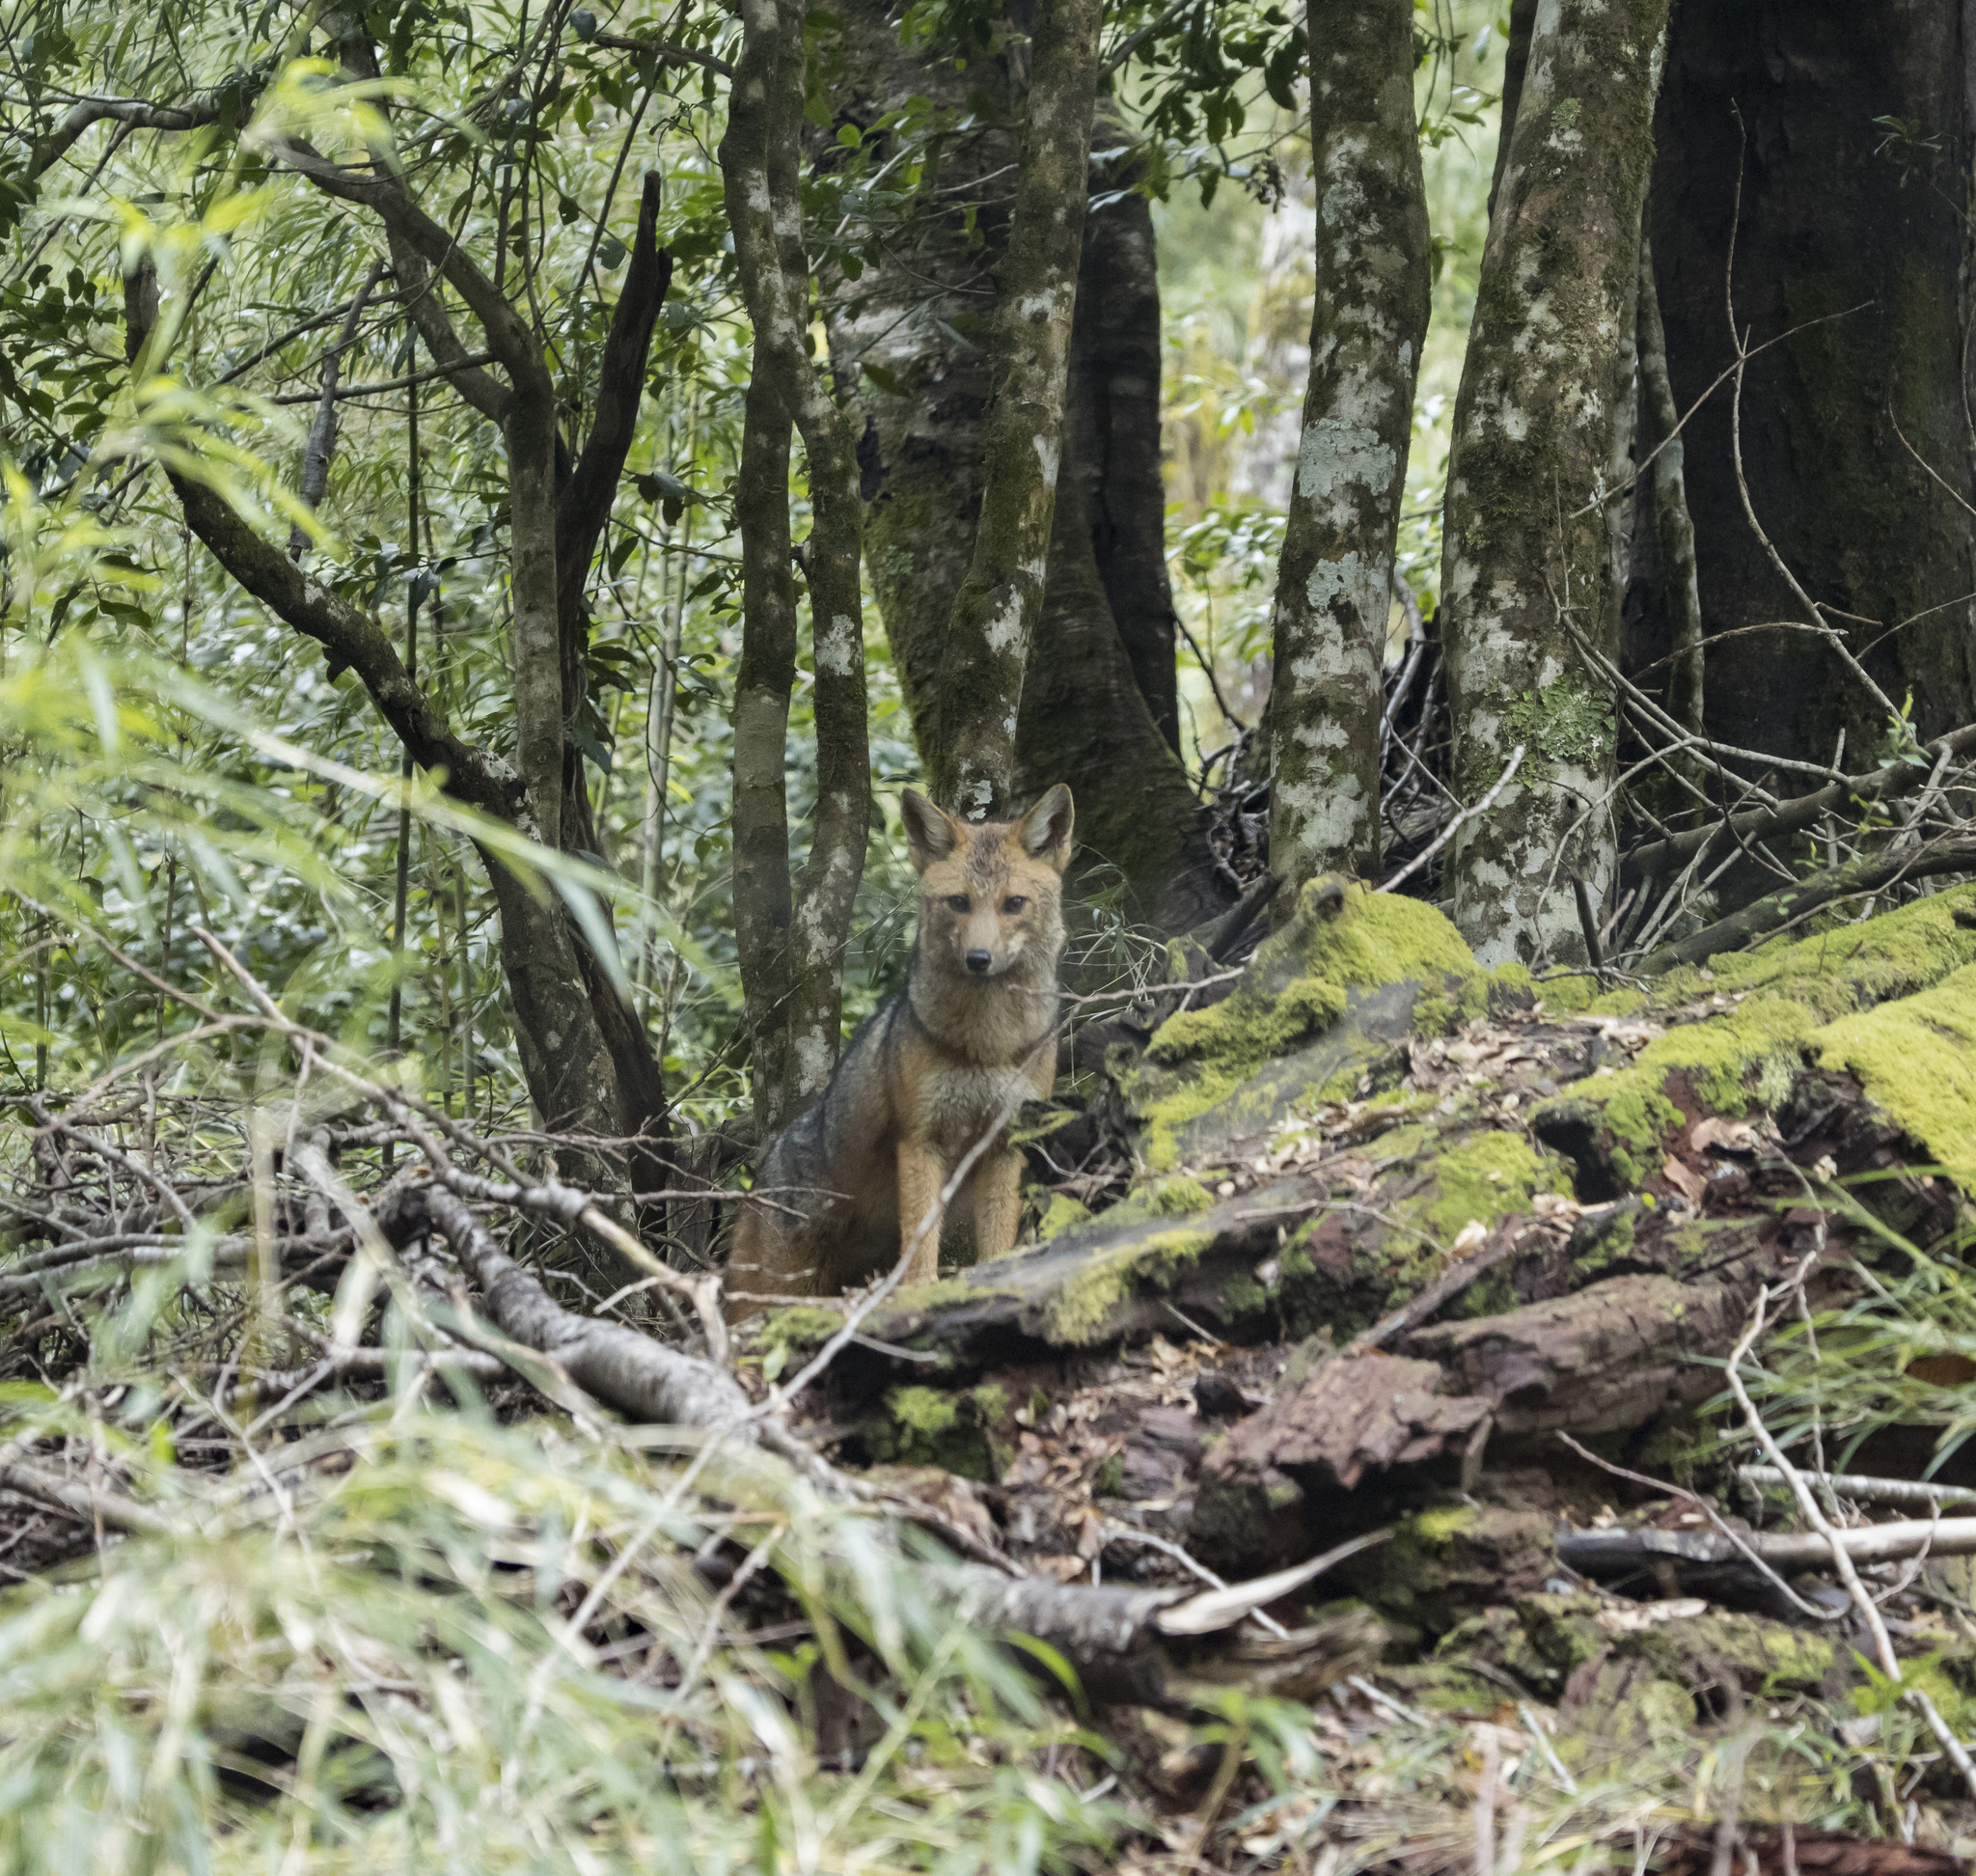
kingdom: Animalia
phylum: Chordata
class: Mammalia
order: Carnivora
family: Canidae
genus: Lycalopex
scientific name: Lycalopex culpaeus
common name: Culpeo
